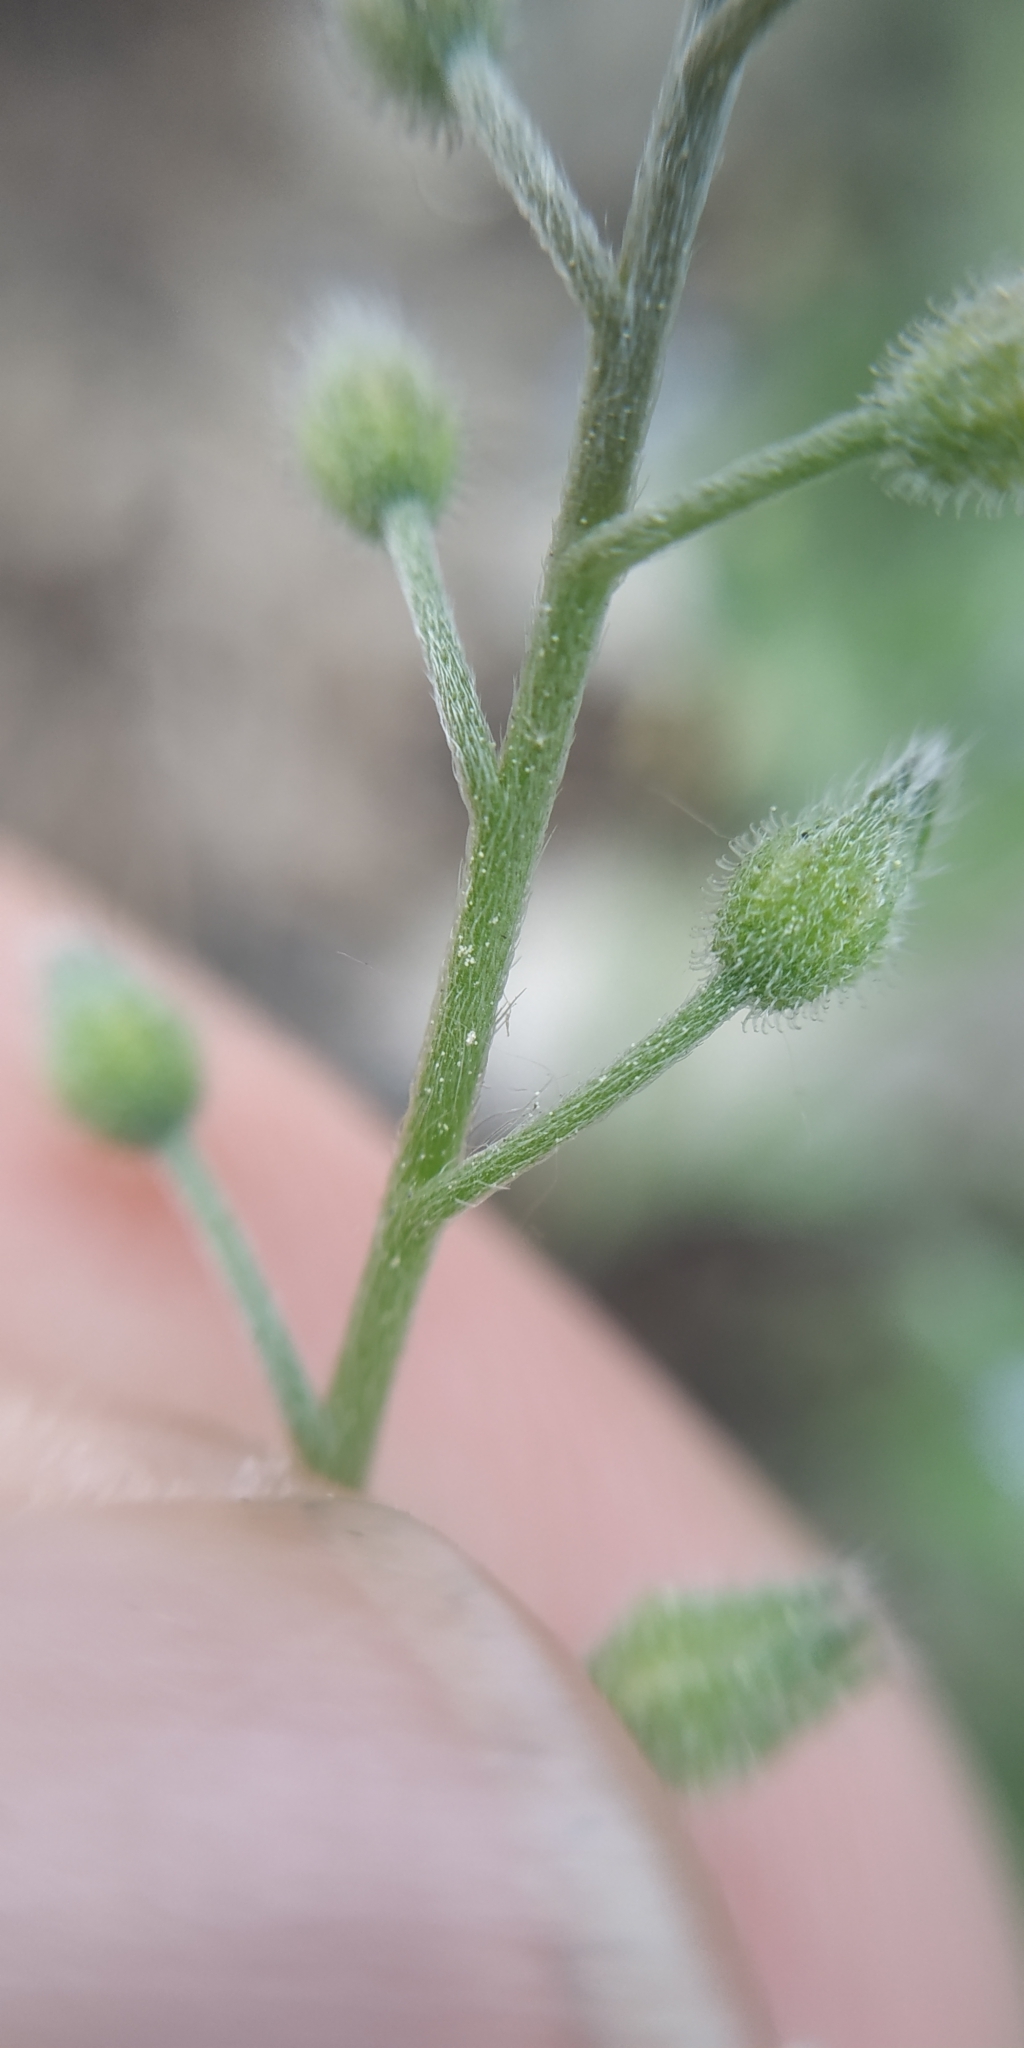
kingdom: Plantae
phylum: Tracheophyta
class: Magnoliopsida
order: Boraginales
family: Boraginaceae
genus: Myosotis
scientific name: Myosotis arvensis
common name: Field forget-me-not
